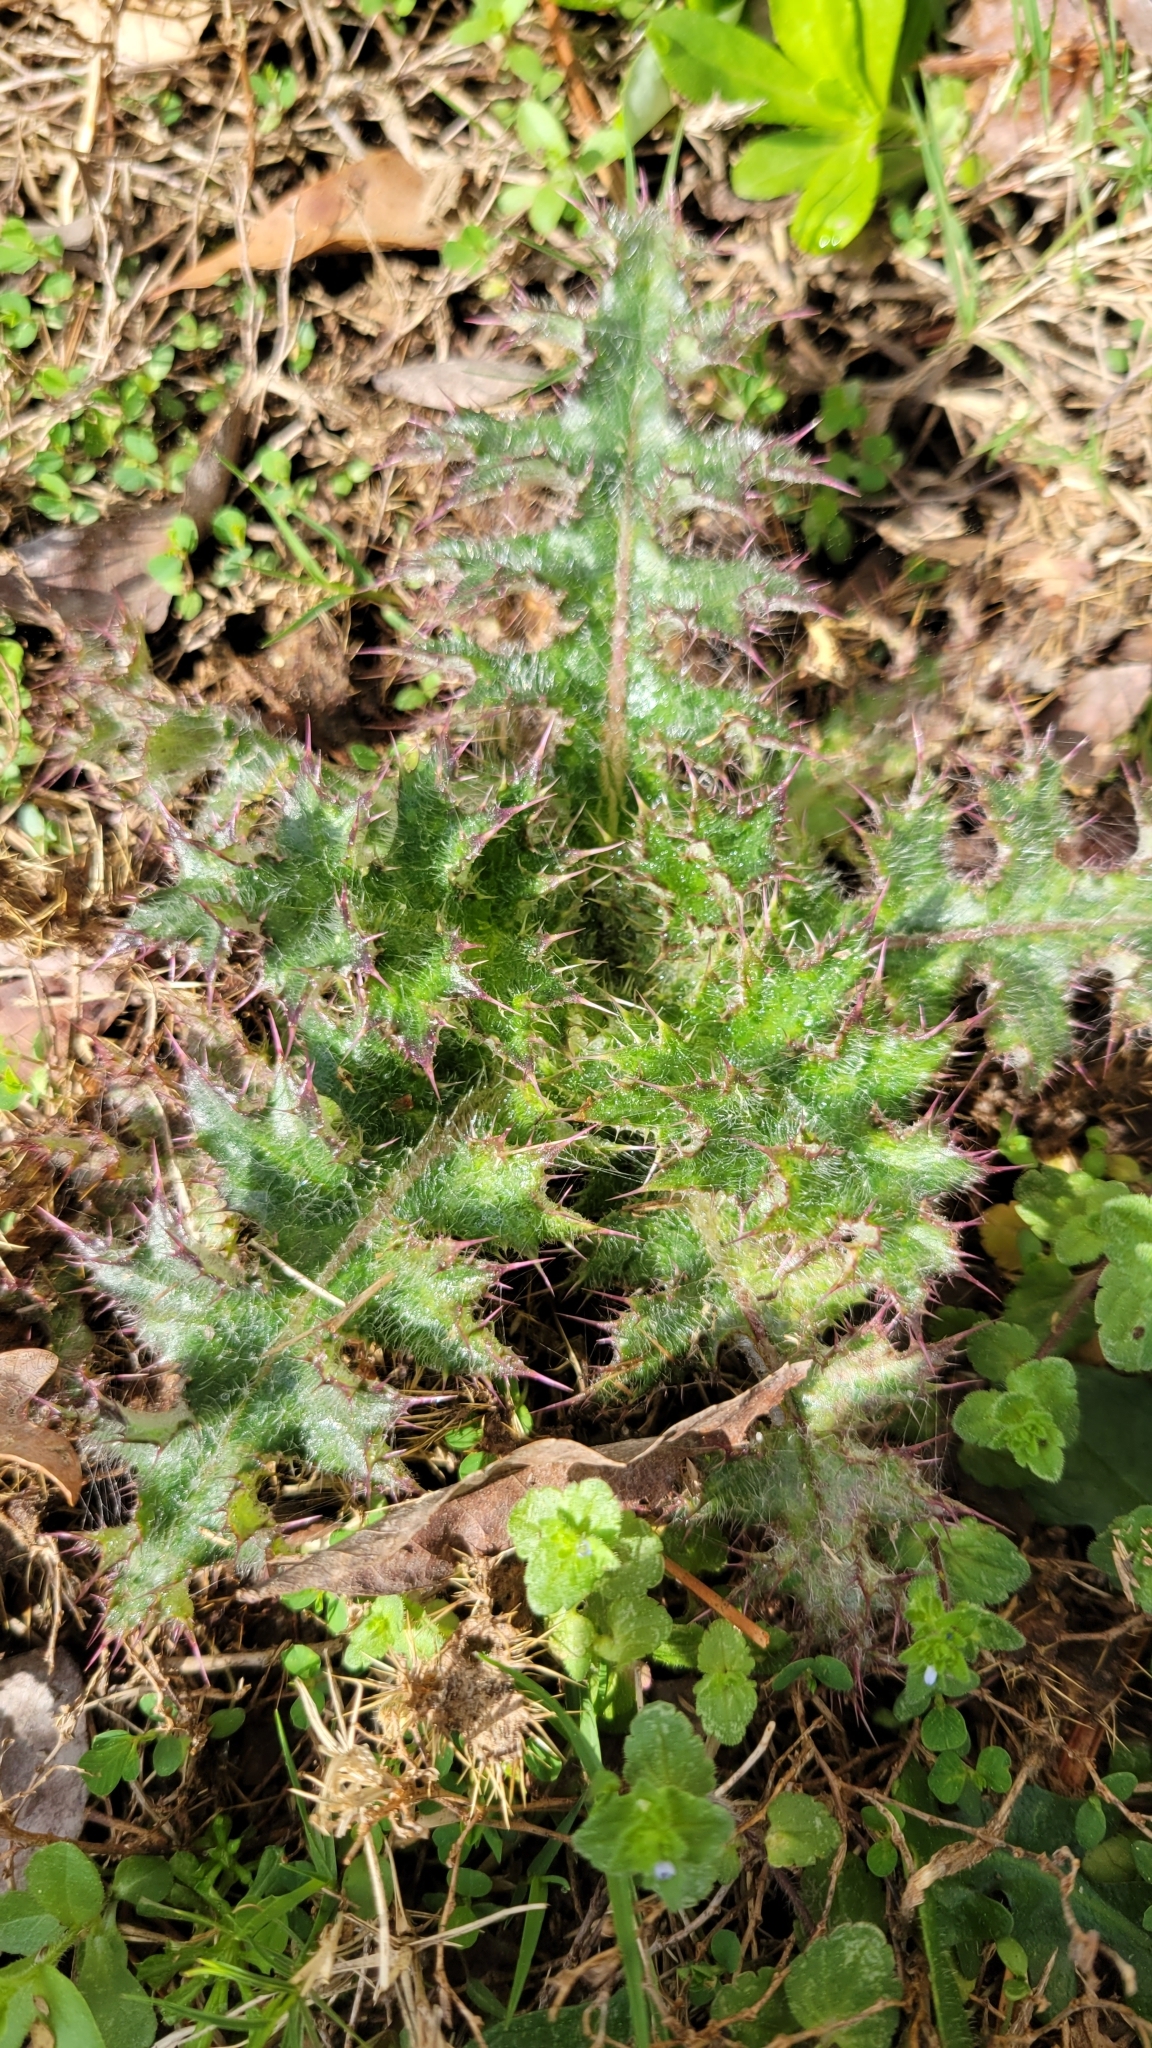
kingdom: Plantae
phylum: Tracheophyta
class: Magnoliopsida
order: Asterales
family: Asteraceae
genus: Cirsium
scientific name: Cirsium horridulum
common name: Bristly thistle
